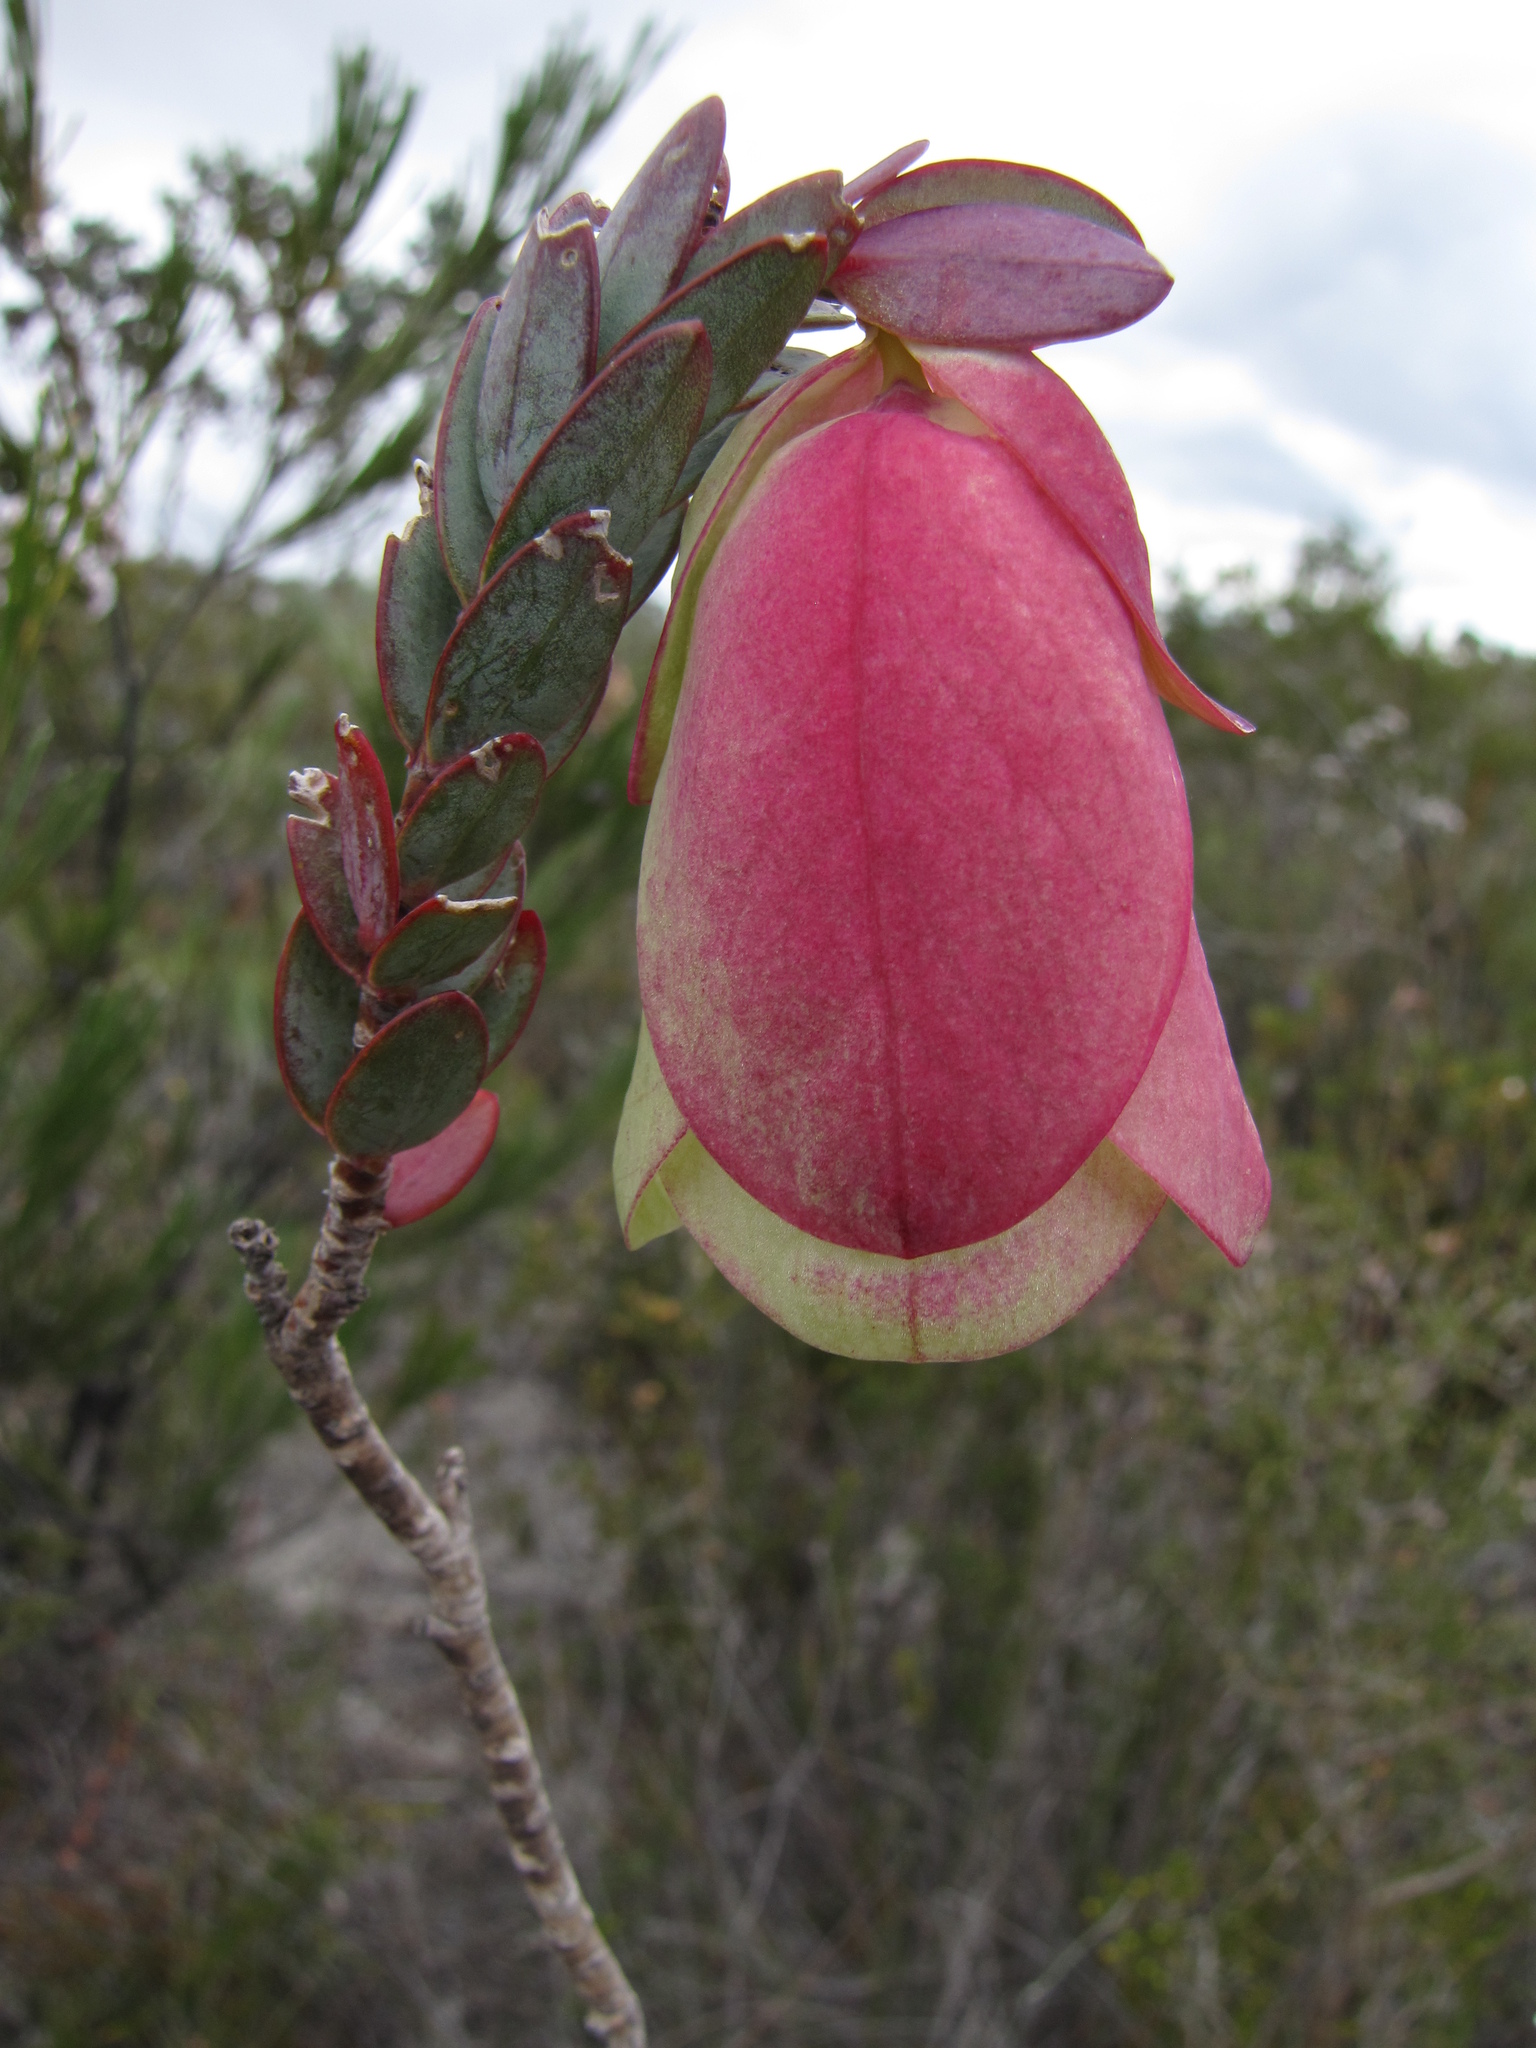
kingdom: Plantae
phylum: Tracheophyta
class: Magnoliopsida
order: Malvales
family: Thymelaeaceae
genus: Pimelea
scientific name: Pimelea physodes
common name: Qualup-bell
